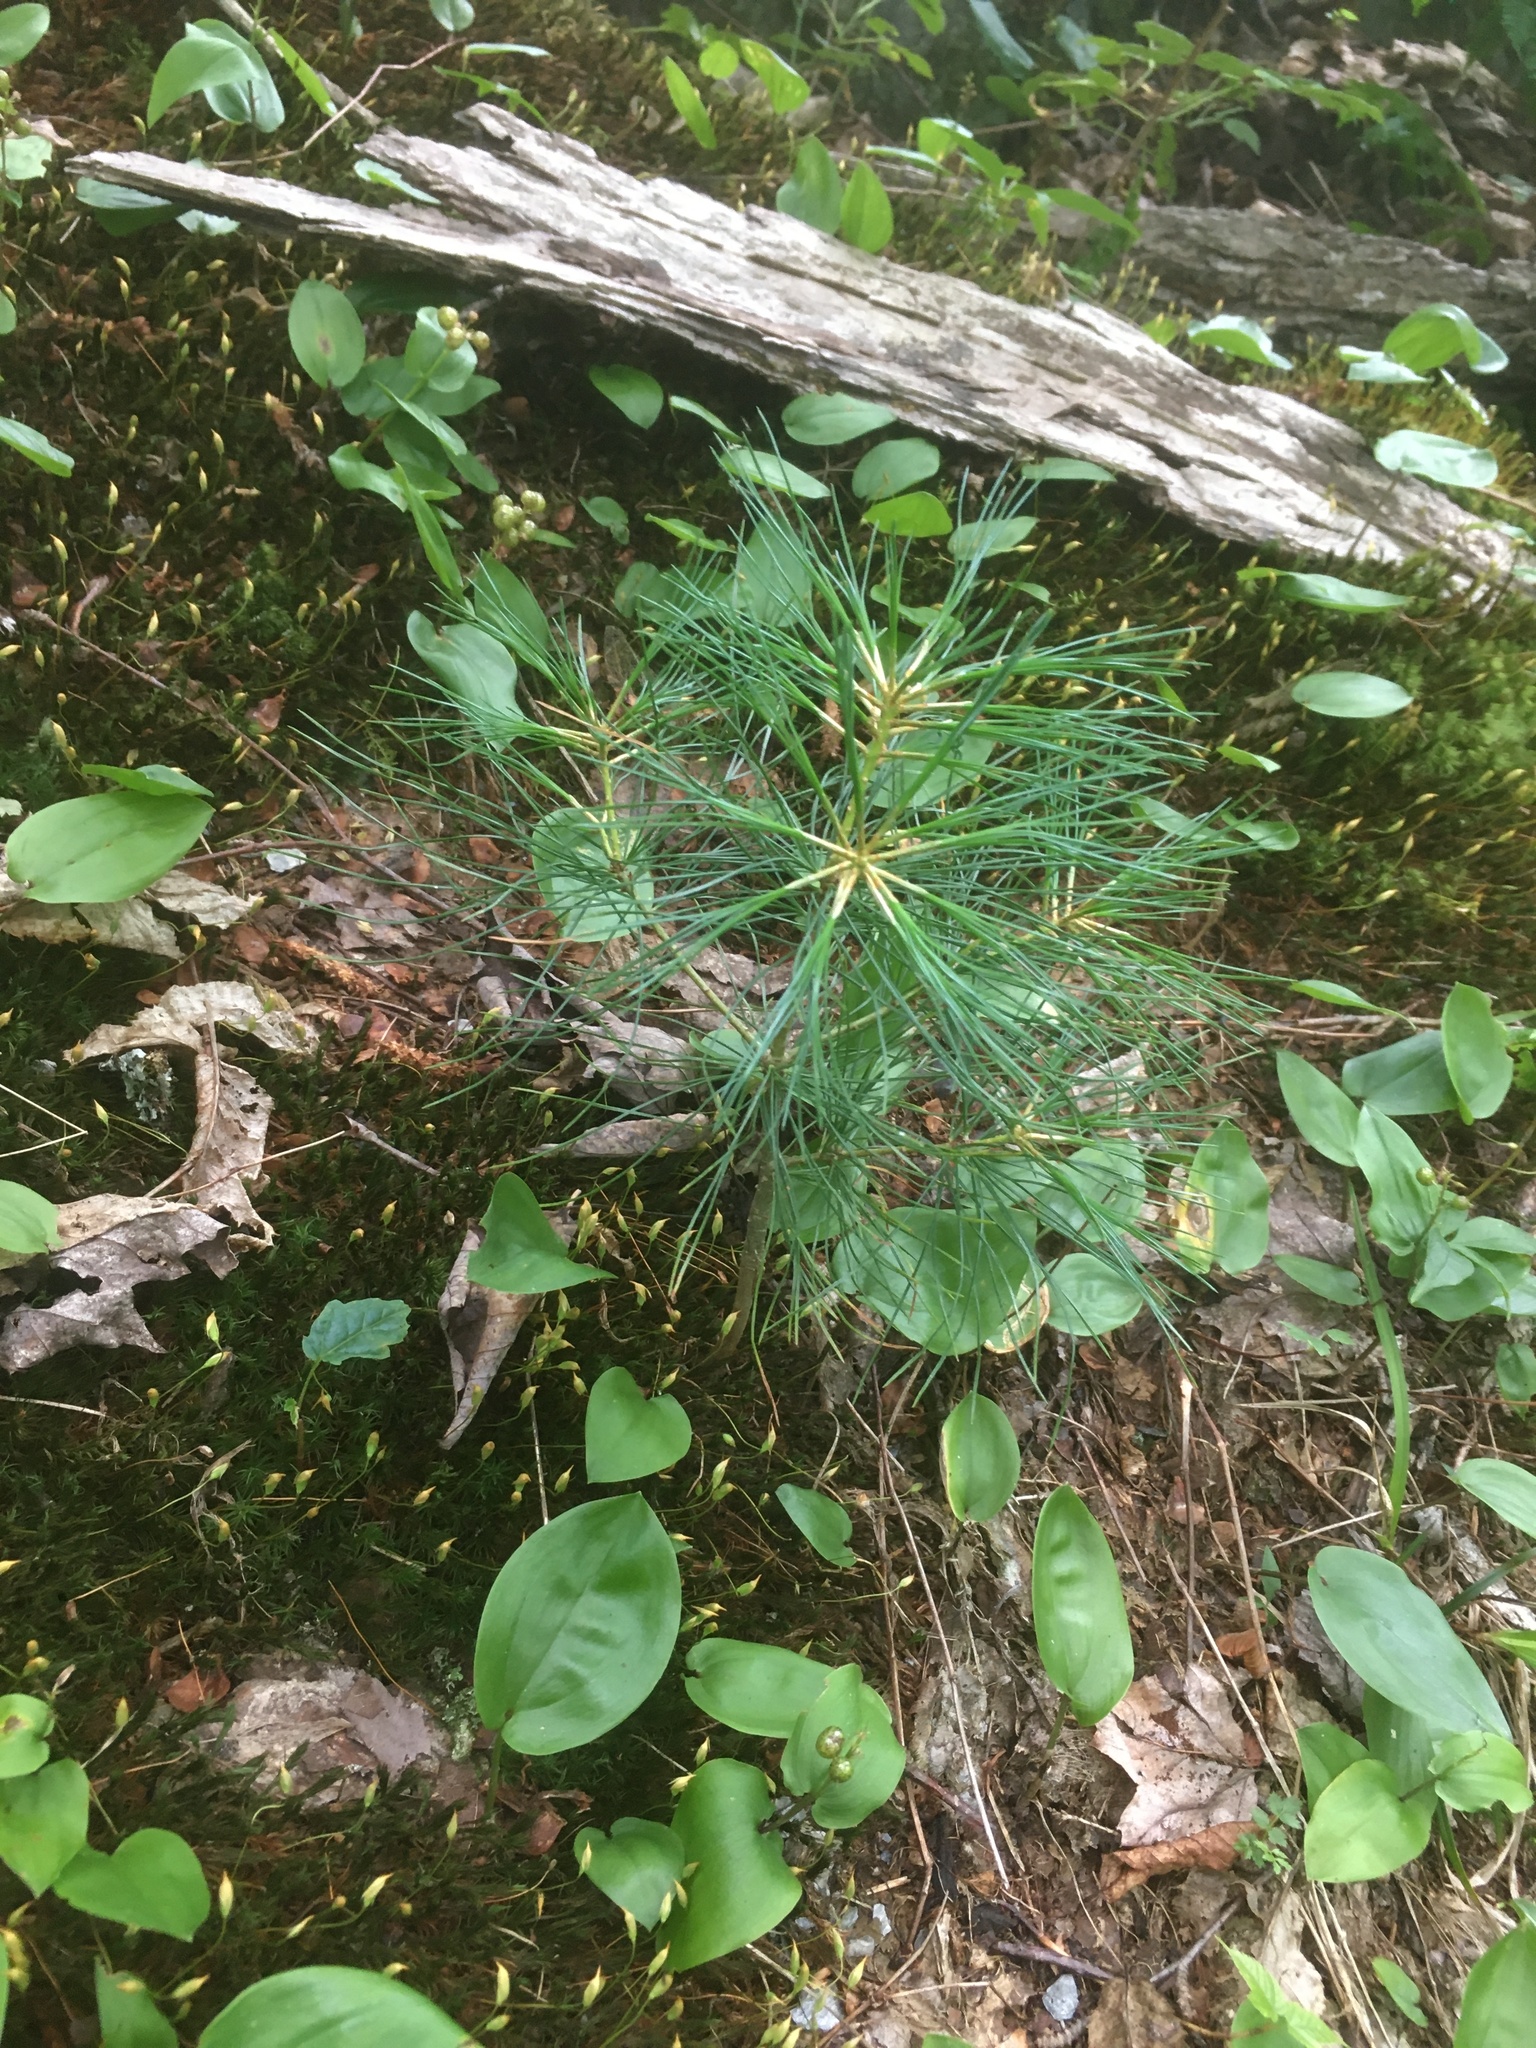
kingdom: Plantae
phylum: Tracheophyta
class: Pinopsida
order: Pinales
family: Pinaceae
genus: Pinus
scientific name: Pinus strobus
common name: Weymouth pine
